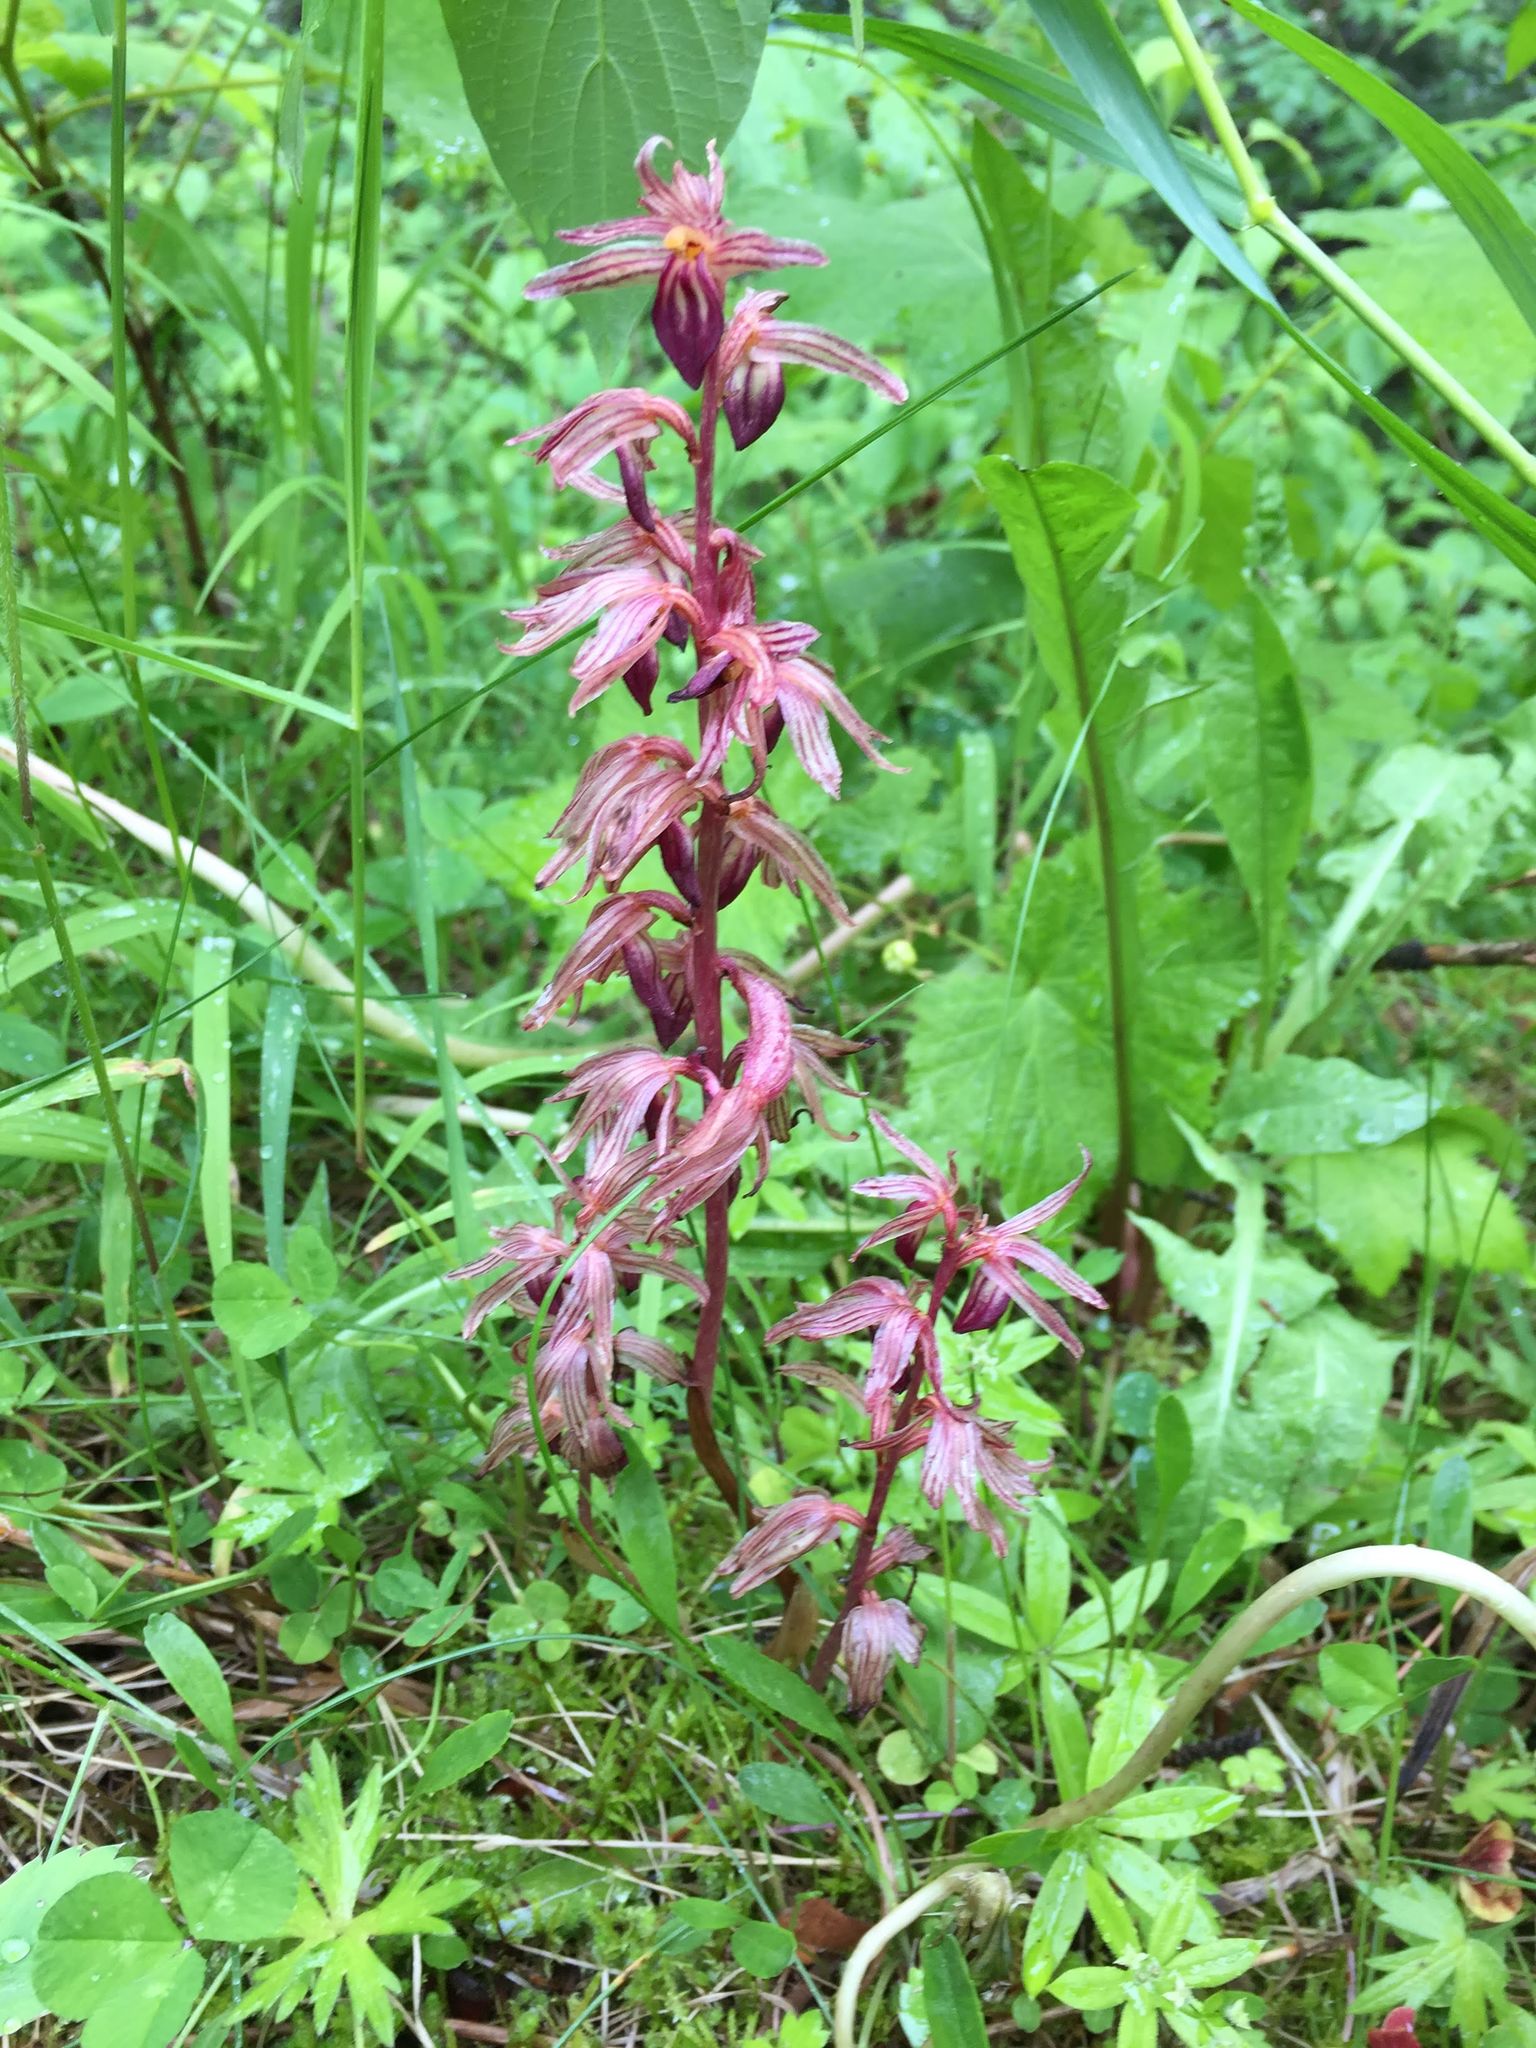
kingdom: Plantae
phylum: Tracheophyta
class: Liliopsida
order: Asparagales
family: Orchidaceae
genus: Corallorhiza
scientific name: Corallorhiza striata
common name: Hooded coralroot
